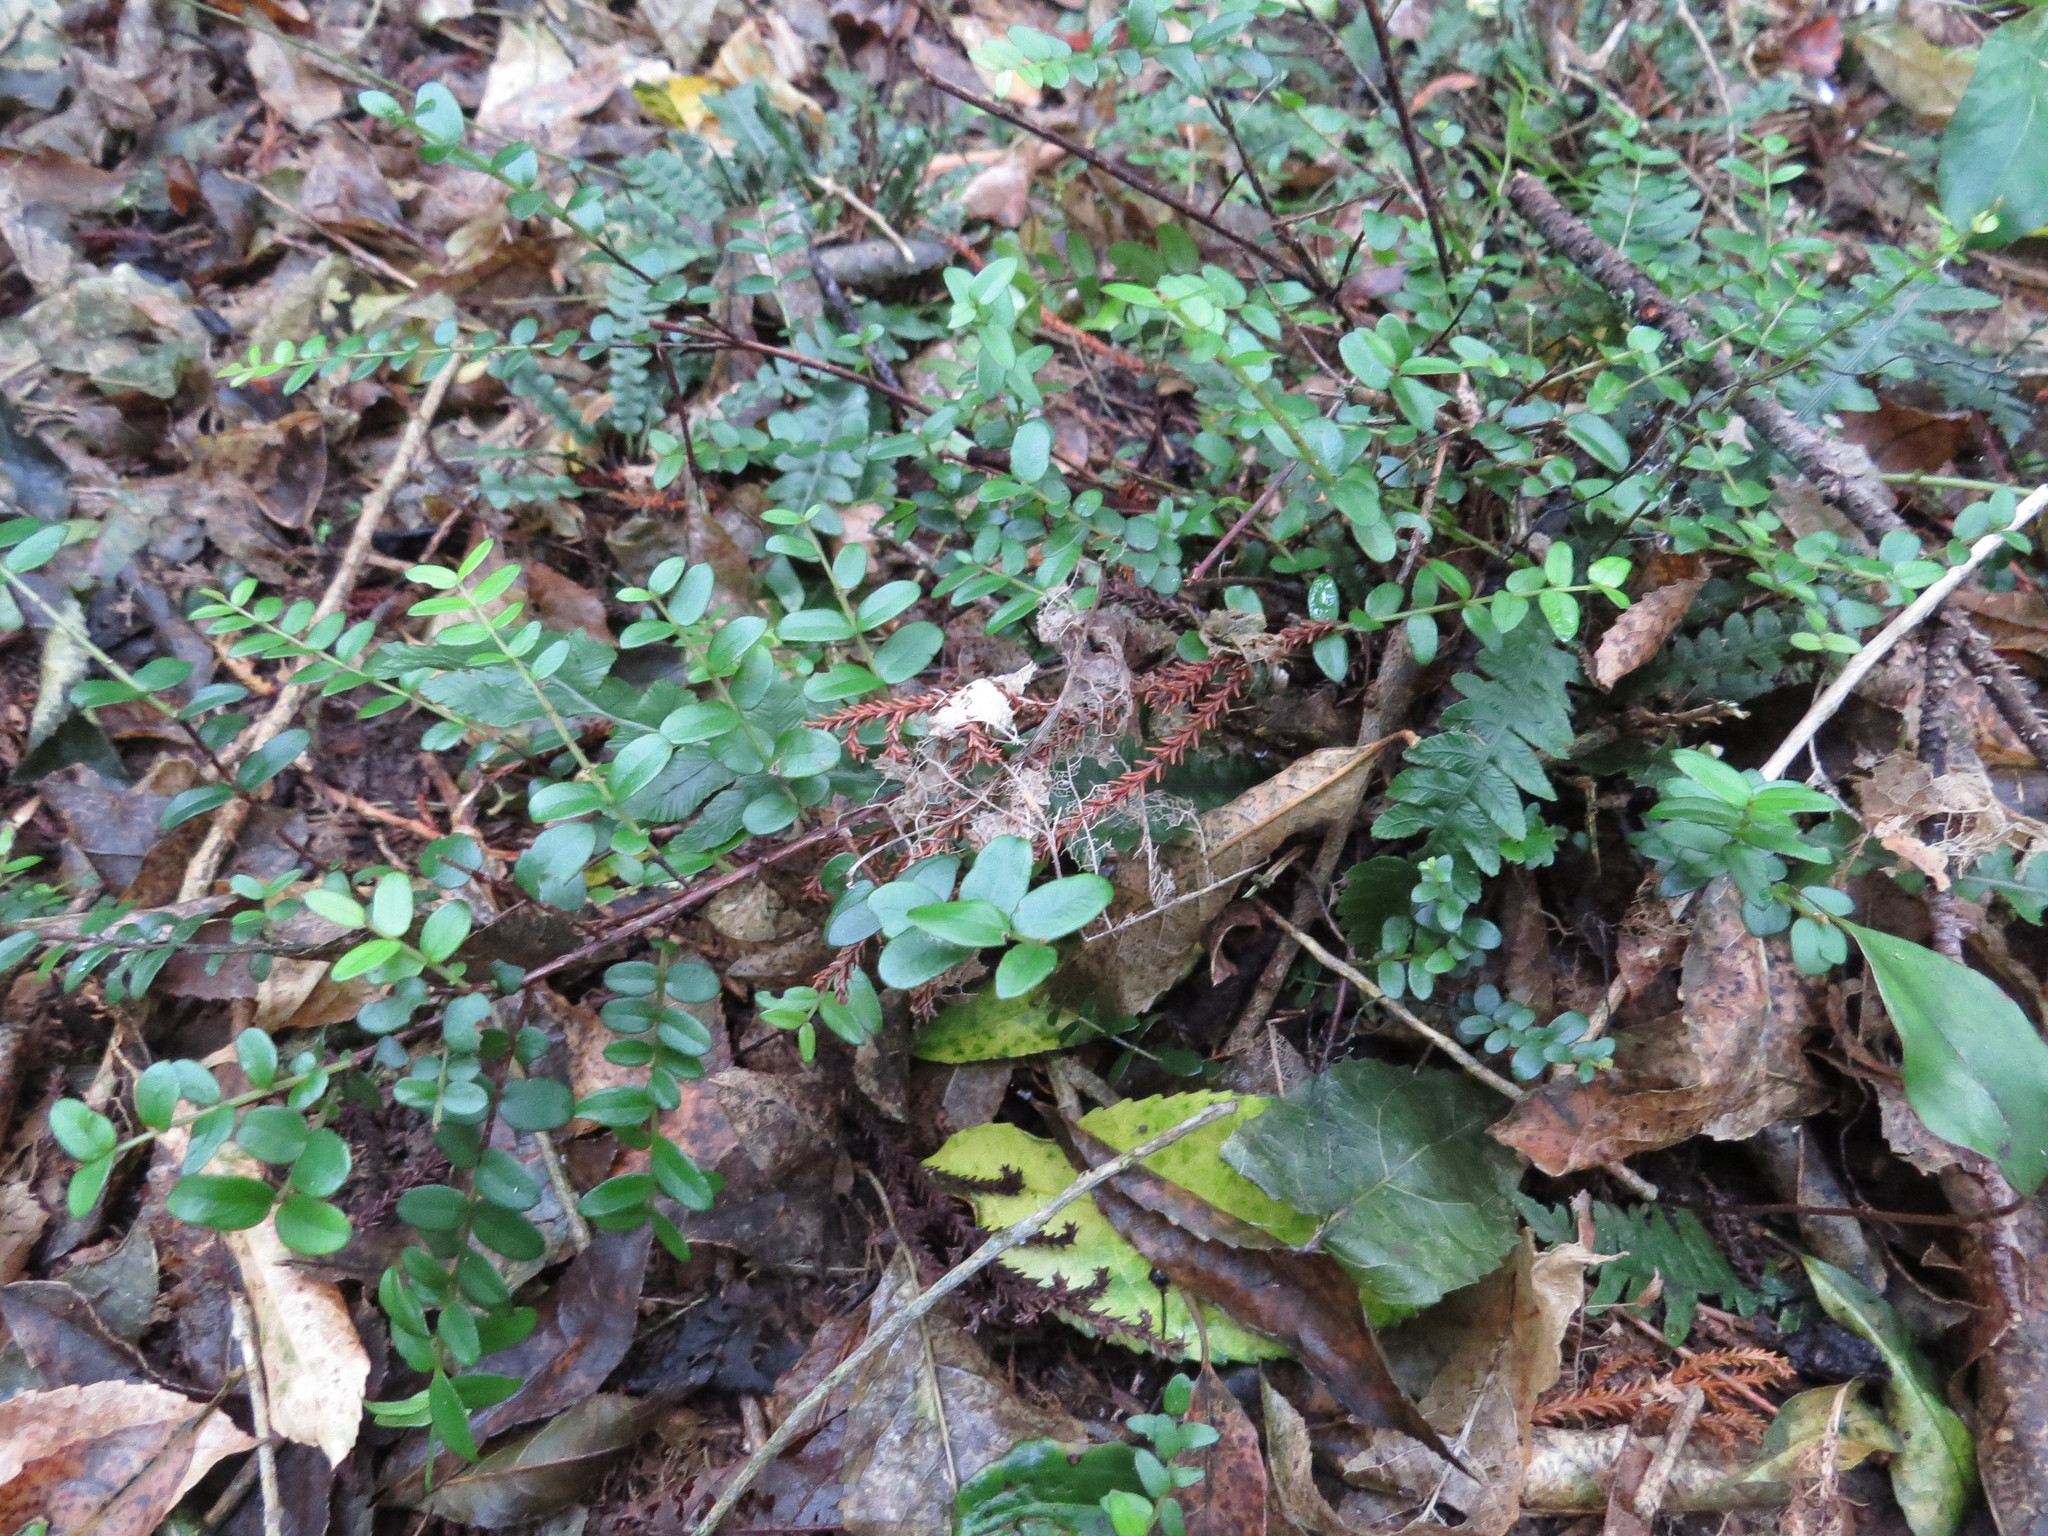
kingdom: Plantae
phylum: Tracheophyta
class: Magnoliopsida
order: Myrtales
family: Myrtaceae
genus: Metrosideros
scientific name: Metrosideros diffusa
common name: Small ratavine
